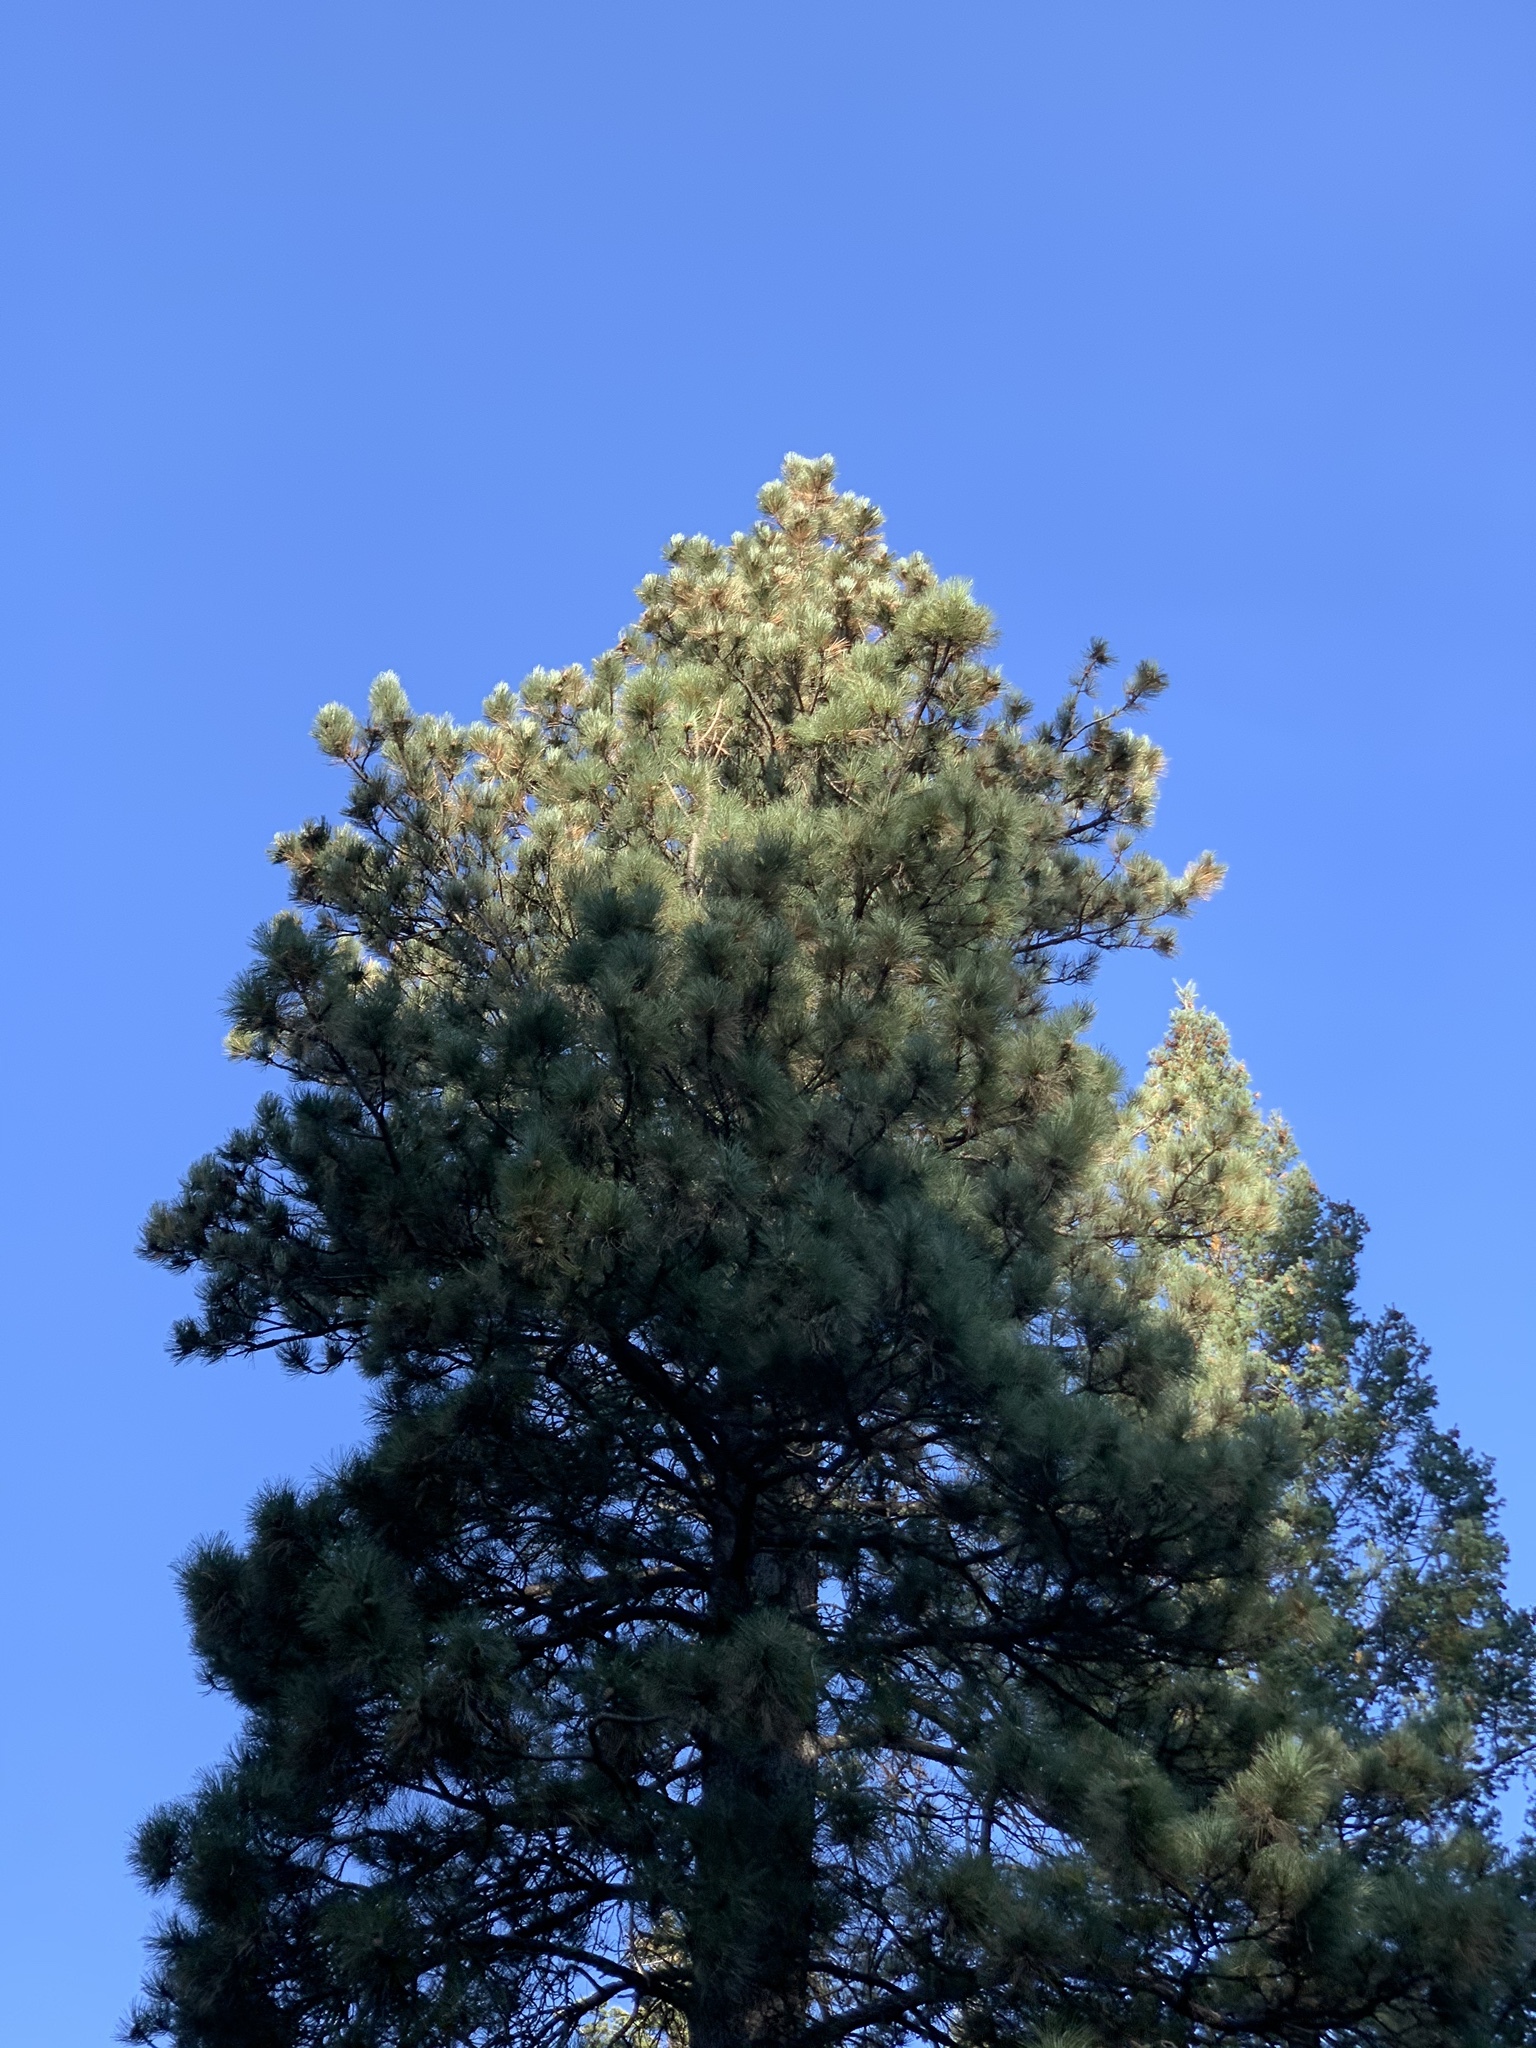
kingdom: Plantae
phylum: Tracheophyta
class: Pinopsida
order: Pinales
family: Pinaceae
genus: Pinus
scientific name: Pinus ponderosa
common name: Western yellow-pine
